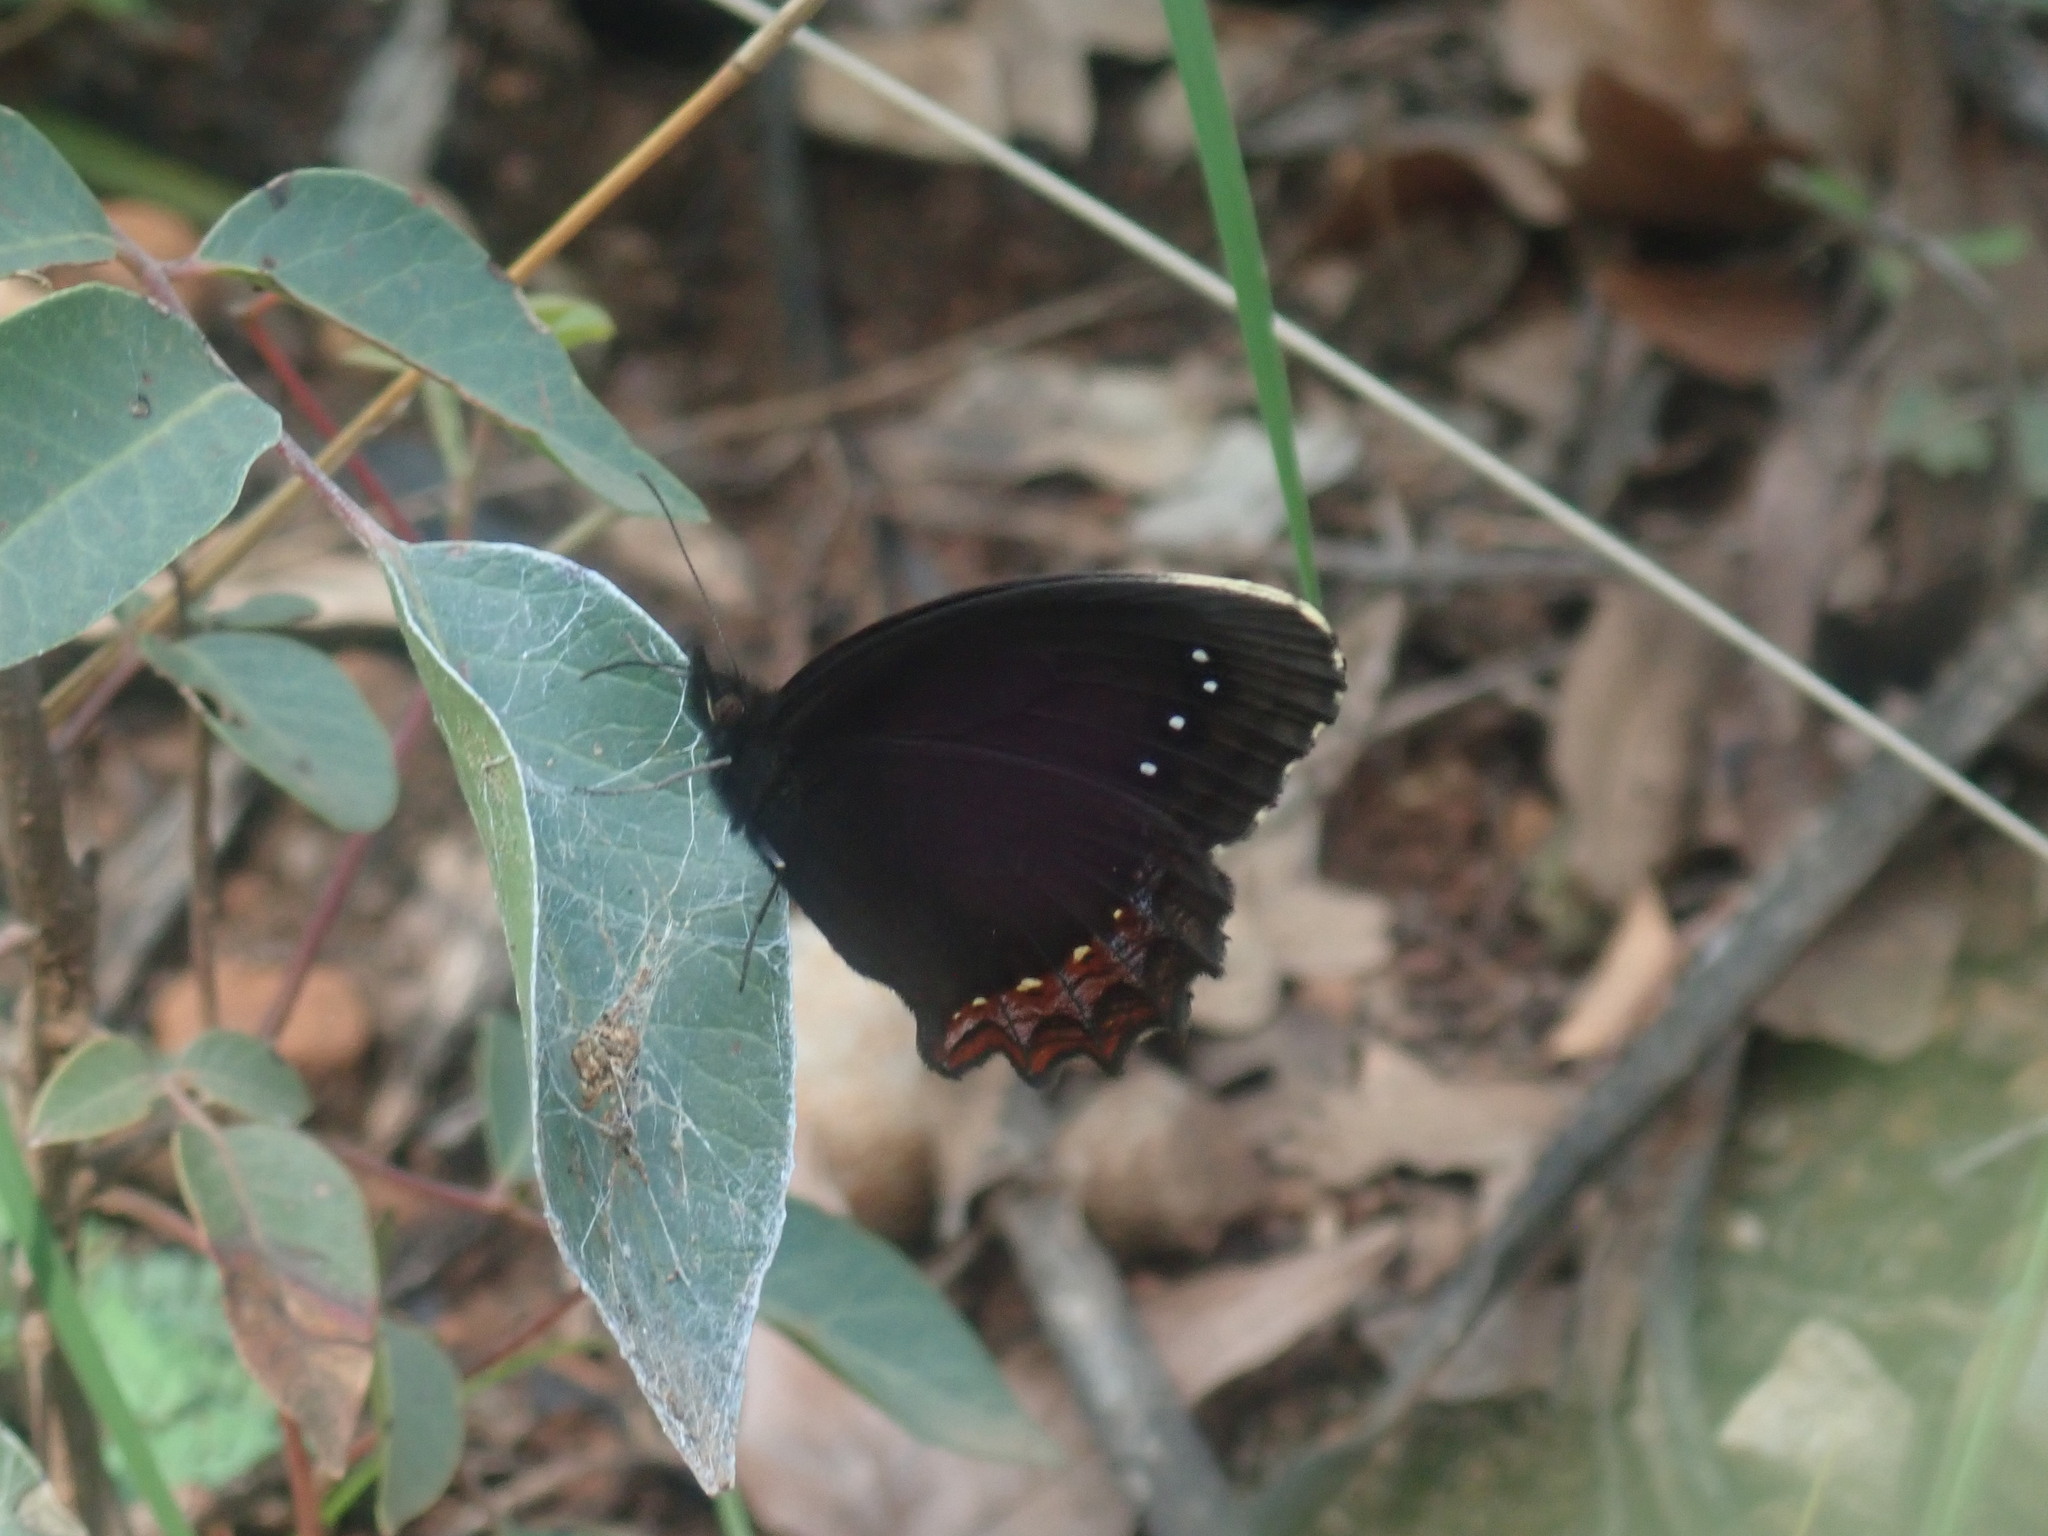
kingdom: Animalia
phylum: Arthropoda
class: Insecta
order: Lepidoptera
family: Nymphalidae
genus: Gyrocheilus
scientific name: Gyrocheilus patrobas
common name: Red-bordered satyr
